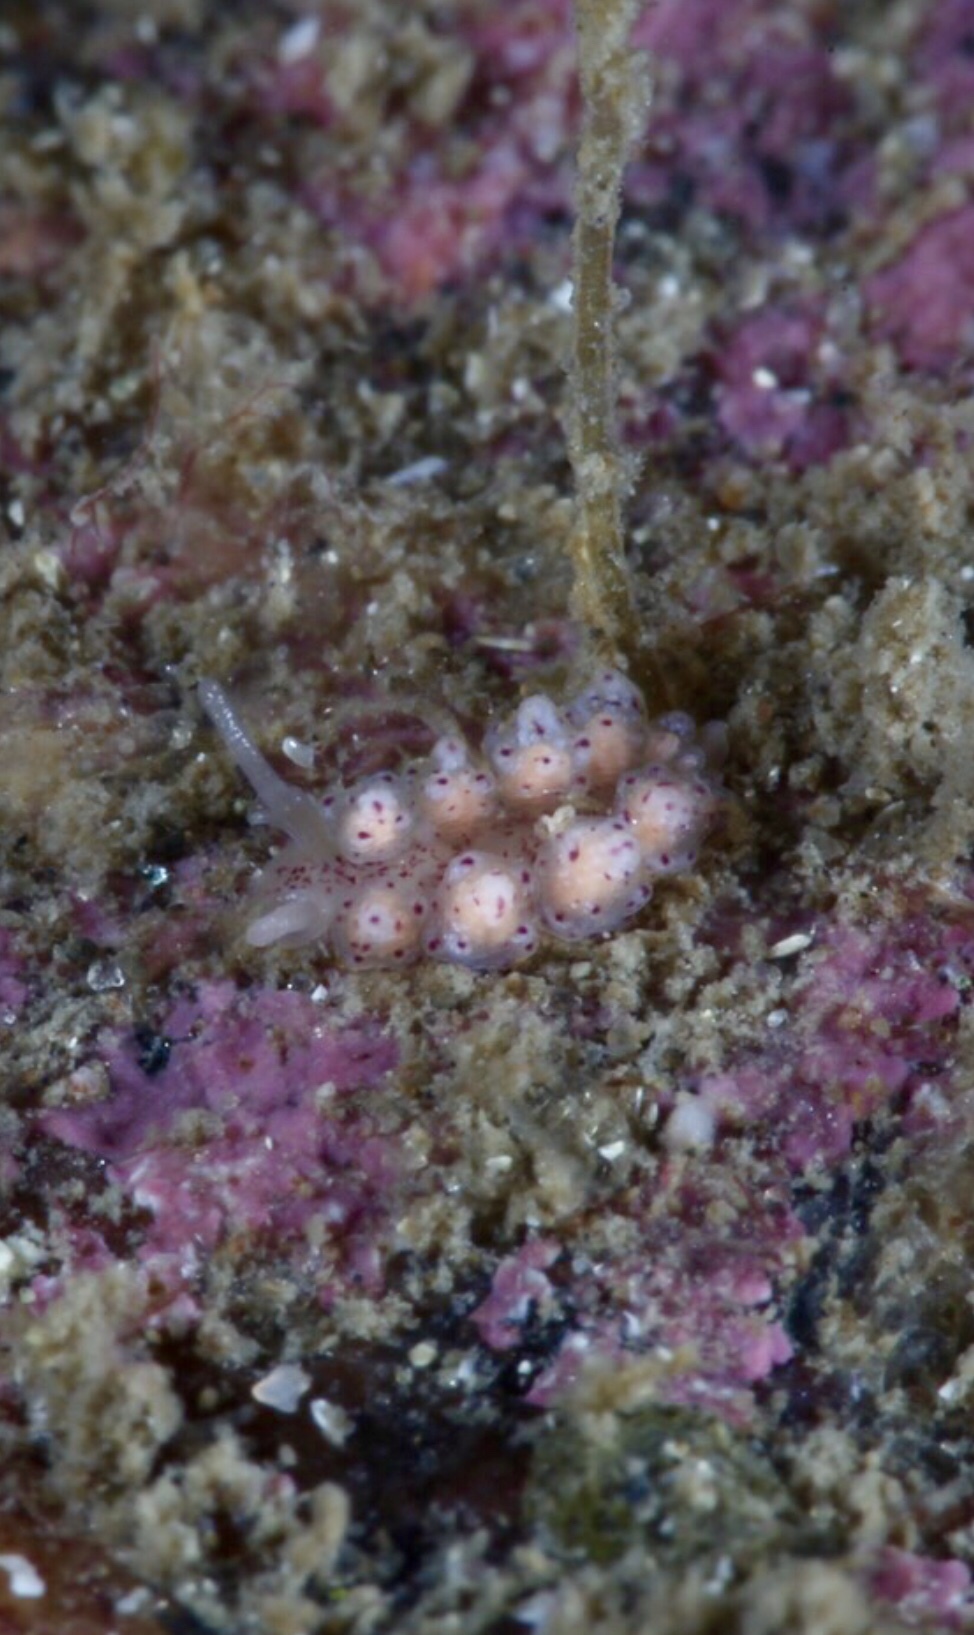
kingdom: Animalia
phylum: Mollusca
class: Gastropoda
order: Nudibranchia
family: Dotidae
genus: Doto
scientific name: Doto dunnei
